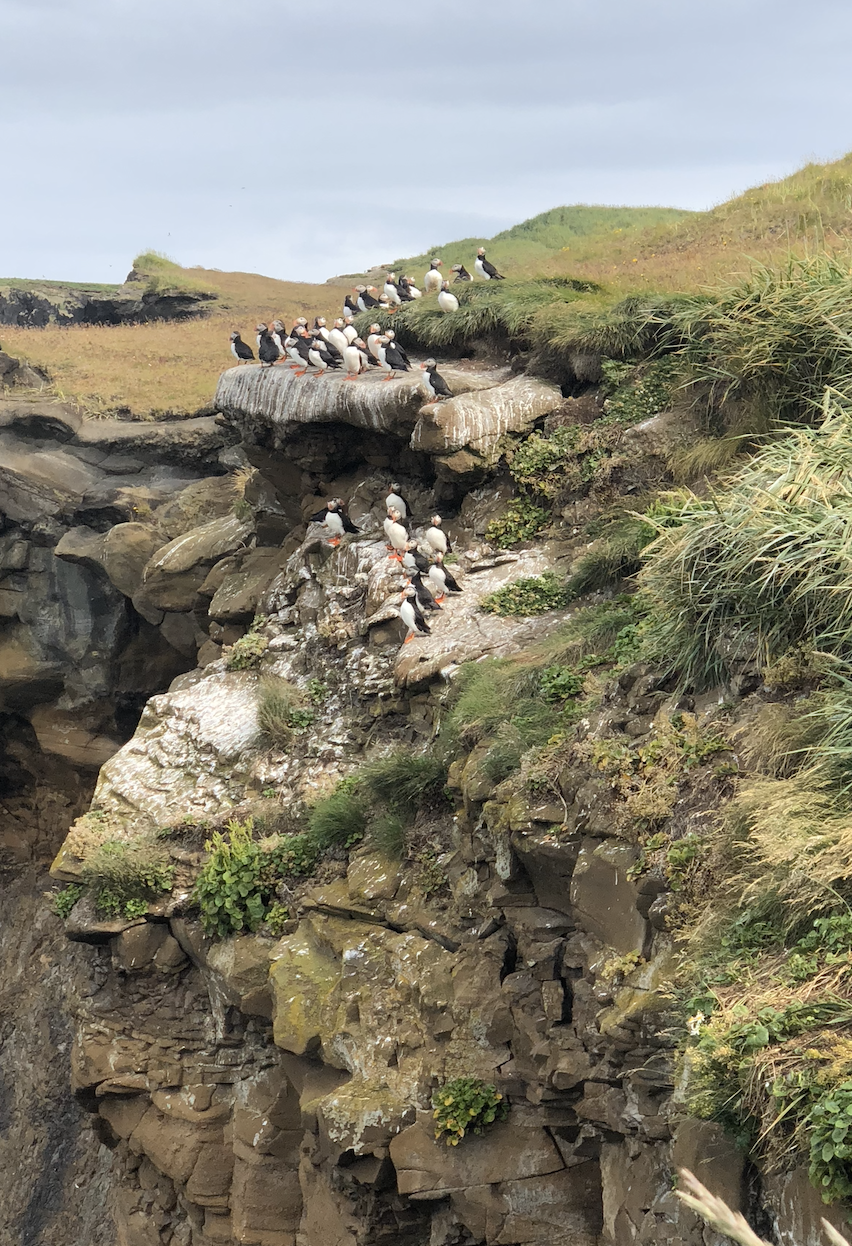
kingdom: Animalia
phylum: Chordata
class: Aves
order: Charadriiformes
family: Alcidae
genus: Fratercula
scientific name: Fratercula arctica
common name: Atlantic puffin
